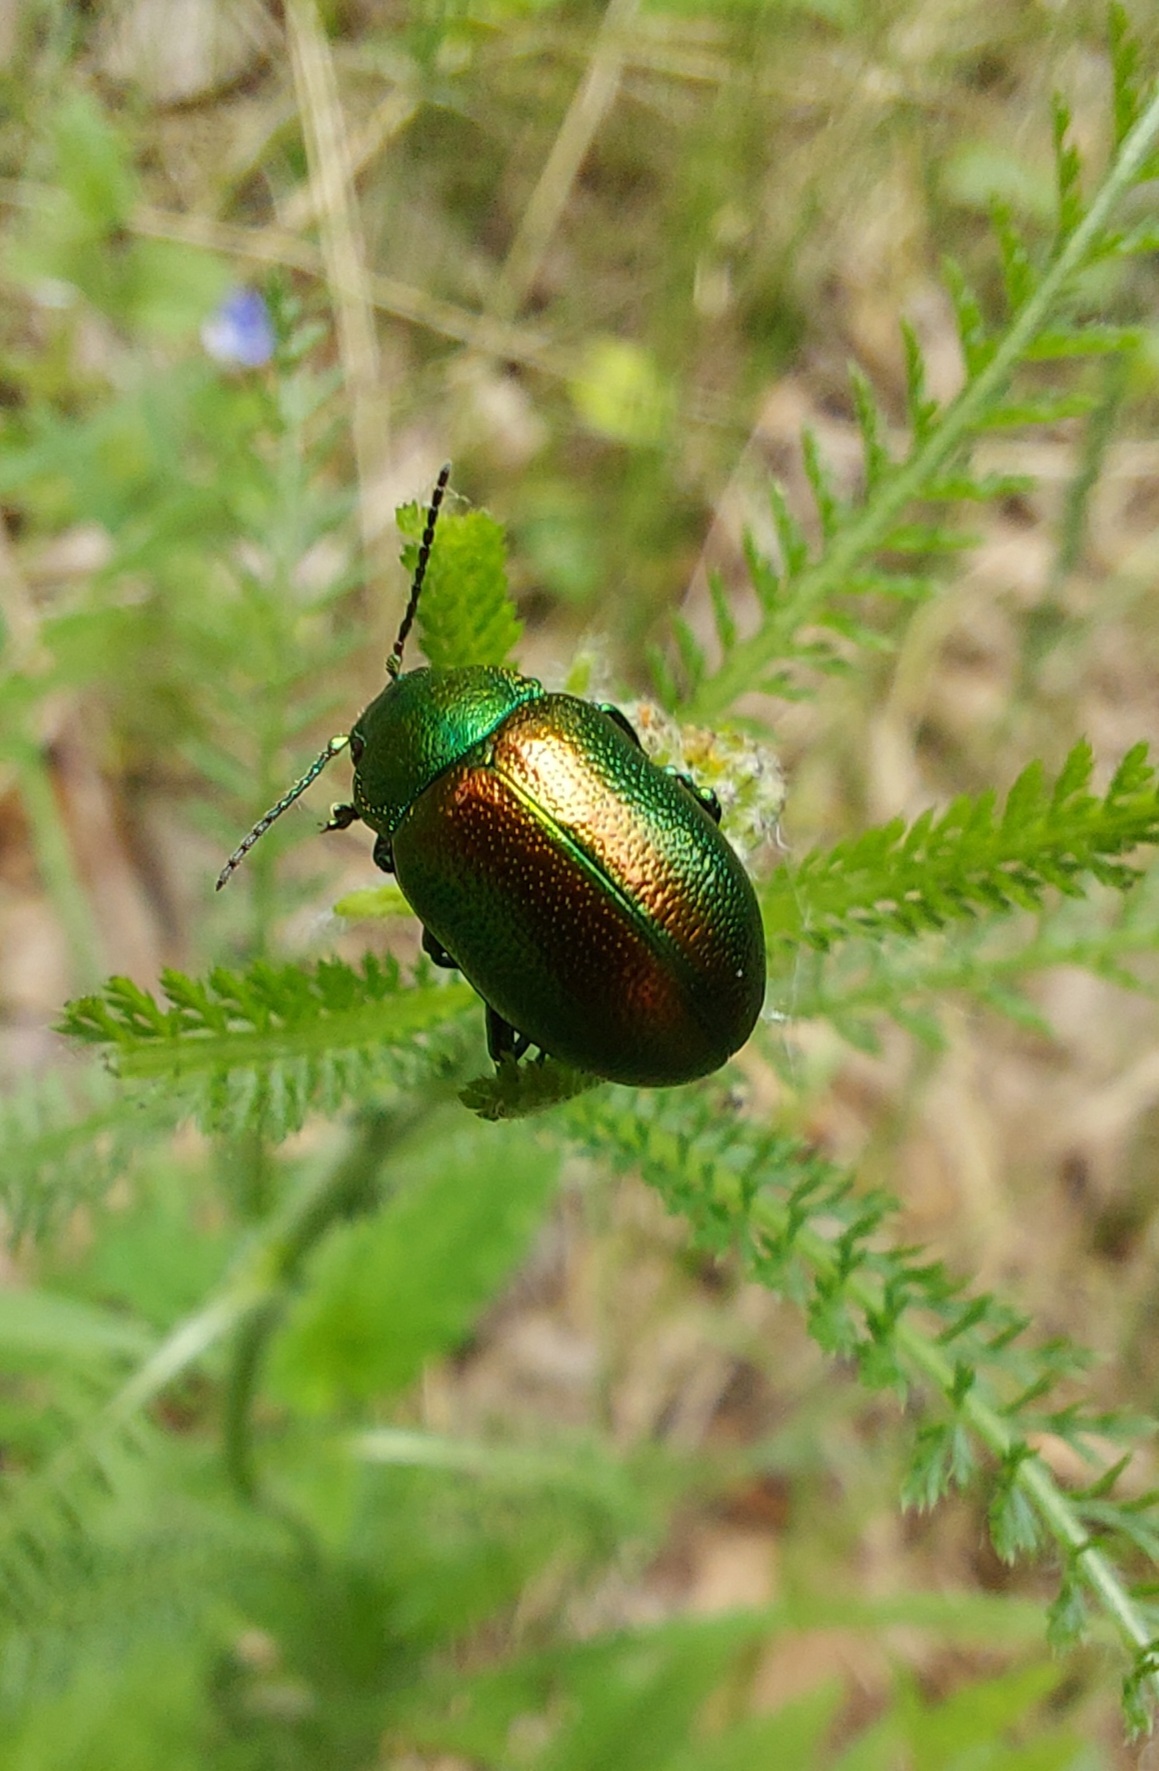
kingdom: Animalia
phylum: Arthropoda
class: Insecta
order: Coleoptera
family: Chrysomelidae
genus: Chrysolina
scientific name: Chrysolina graminis
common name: Tansey beetle
